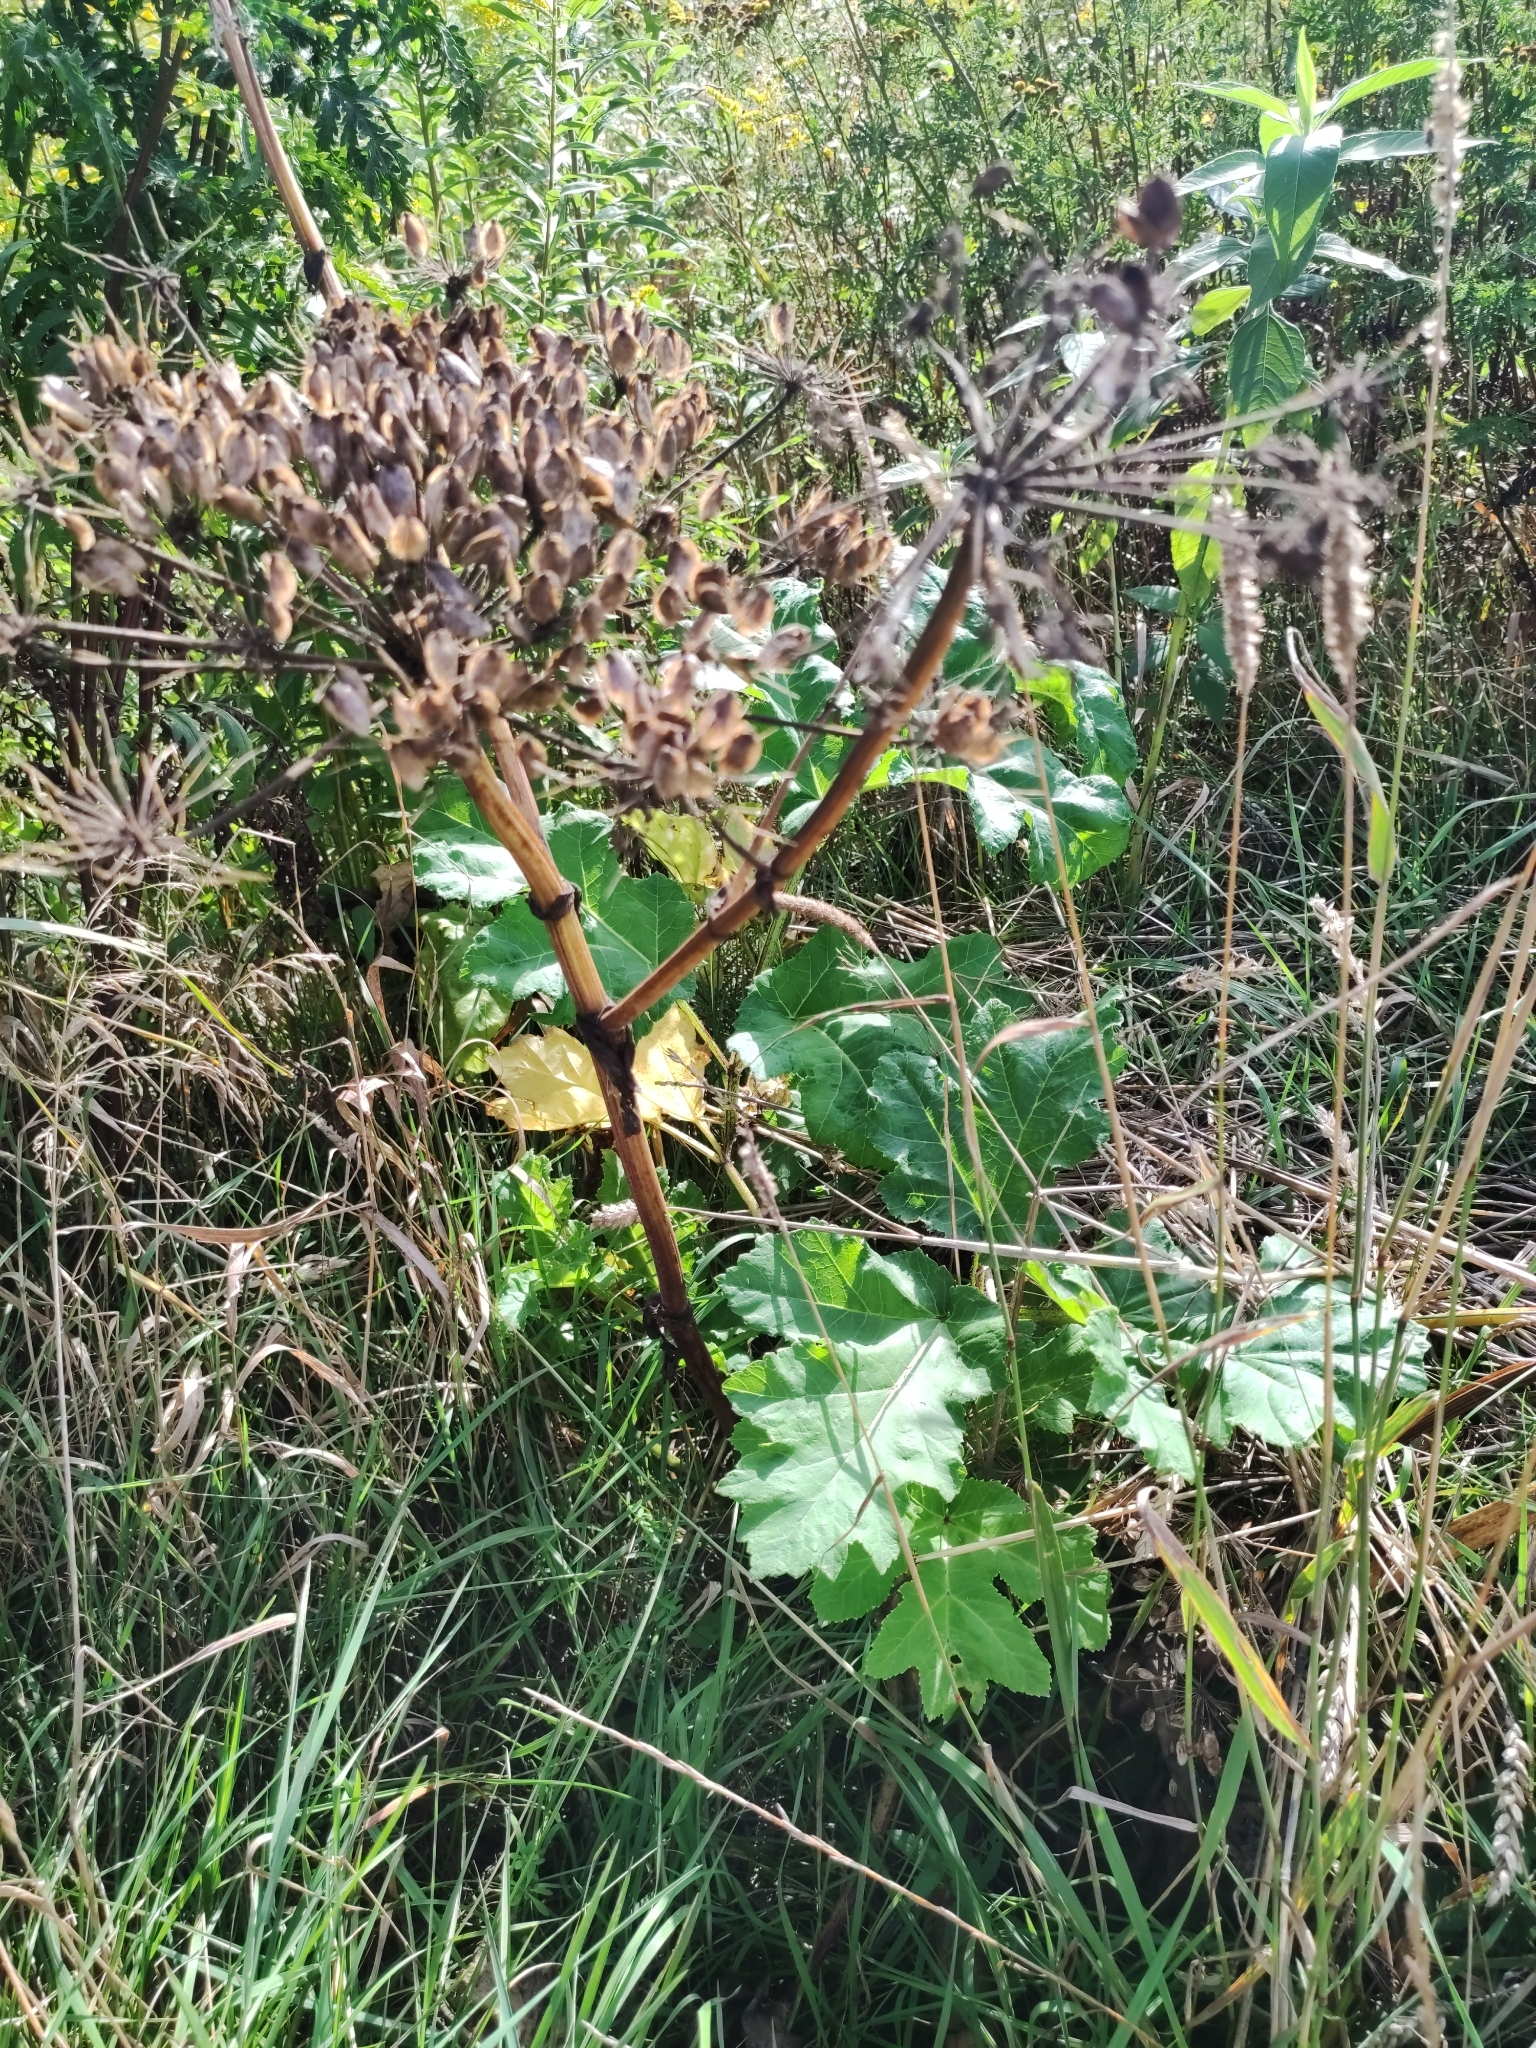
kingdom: Plantae
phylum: Tracheophyta
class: Magnoliopsida
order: Apiales
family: Apiaceae
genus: Heracleum
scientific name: Heracleum sosnowskyi
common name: Sosnowsky's hogweed
